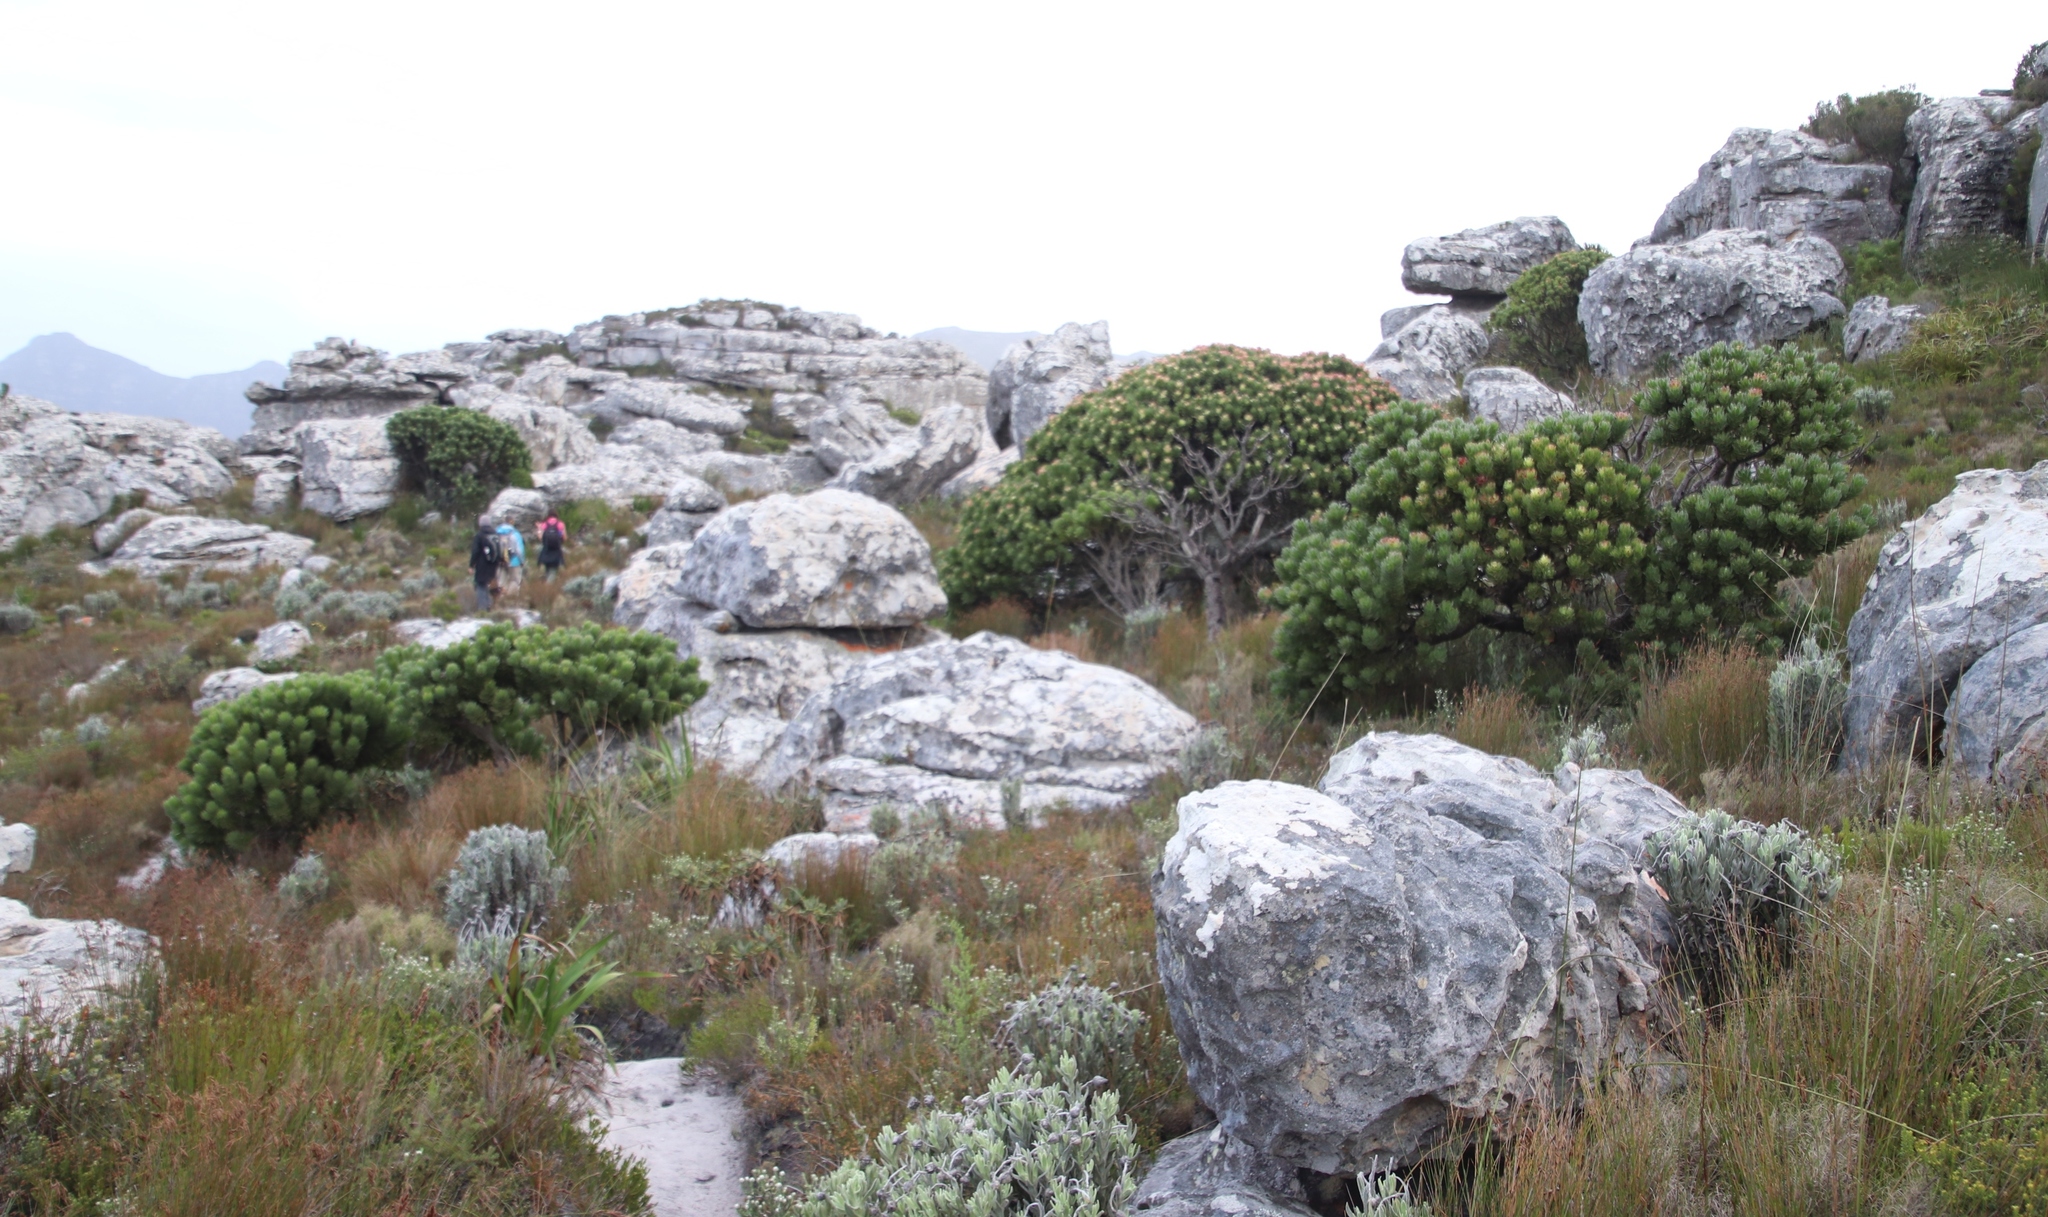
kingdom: Plantae
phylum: Tracheophyta
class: Magnoliopsida
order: Proteales
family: Proteaceae
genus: Mimetes
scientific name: Mimetes fimbriifolius
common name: Fringed bottlebrush
